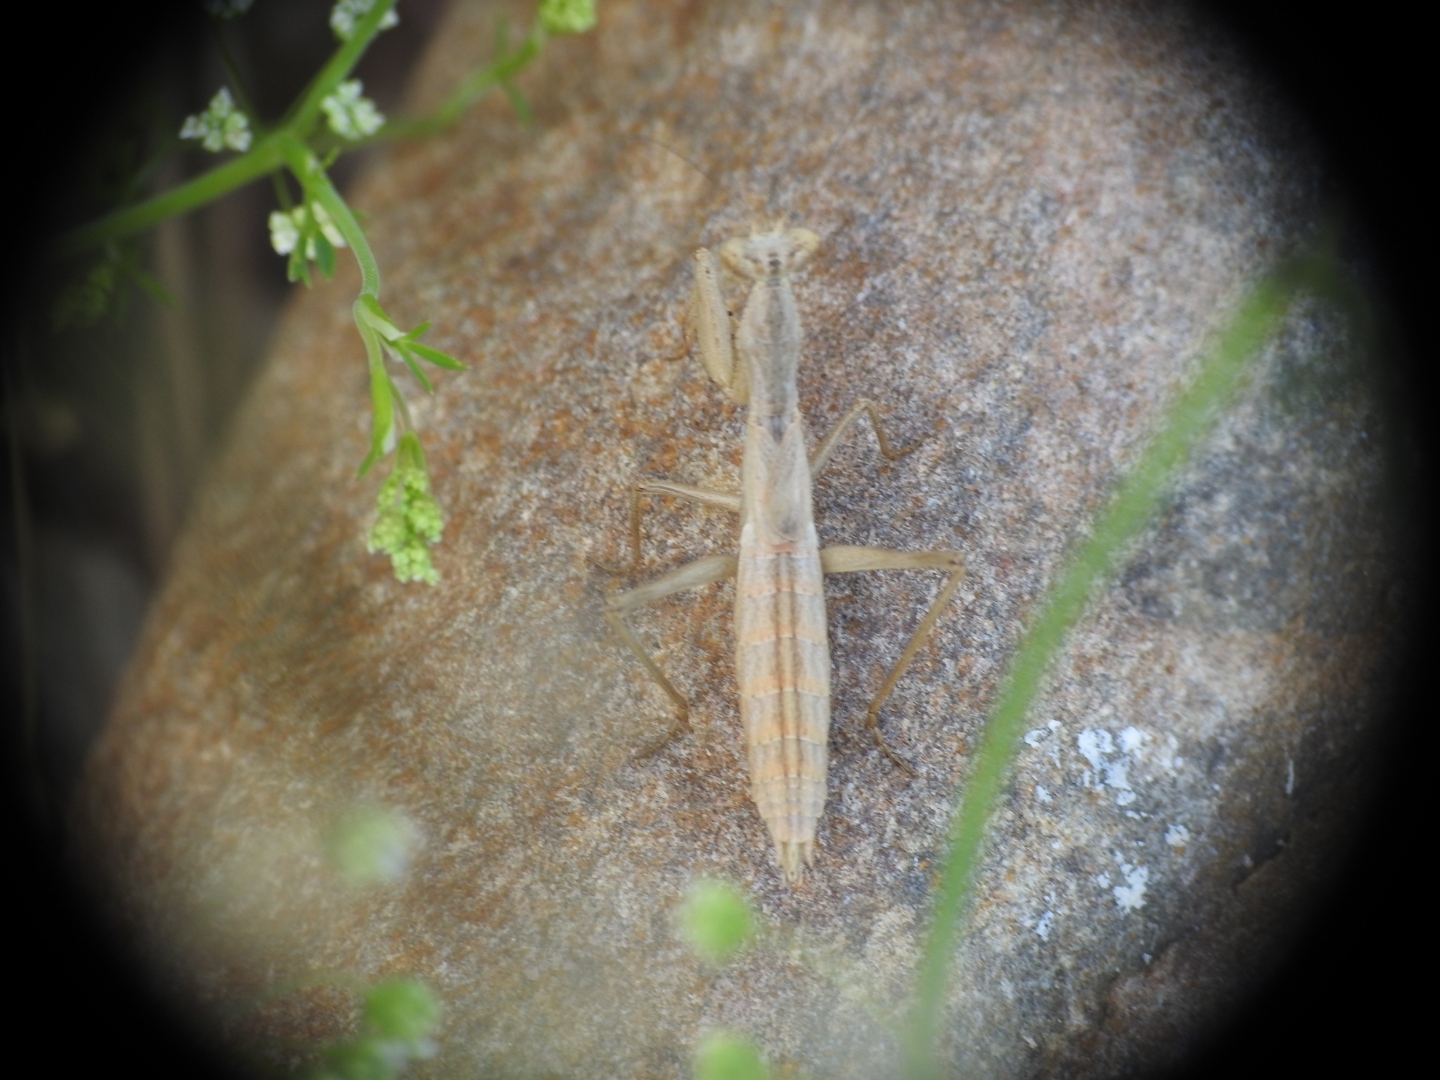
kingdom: Animalia
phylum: Arthropoda
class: Insecta
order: Mantodea
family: Amelidae
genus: Ameles
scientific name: Ameles heldreichi
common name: Heldreich's dwarf mantis
